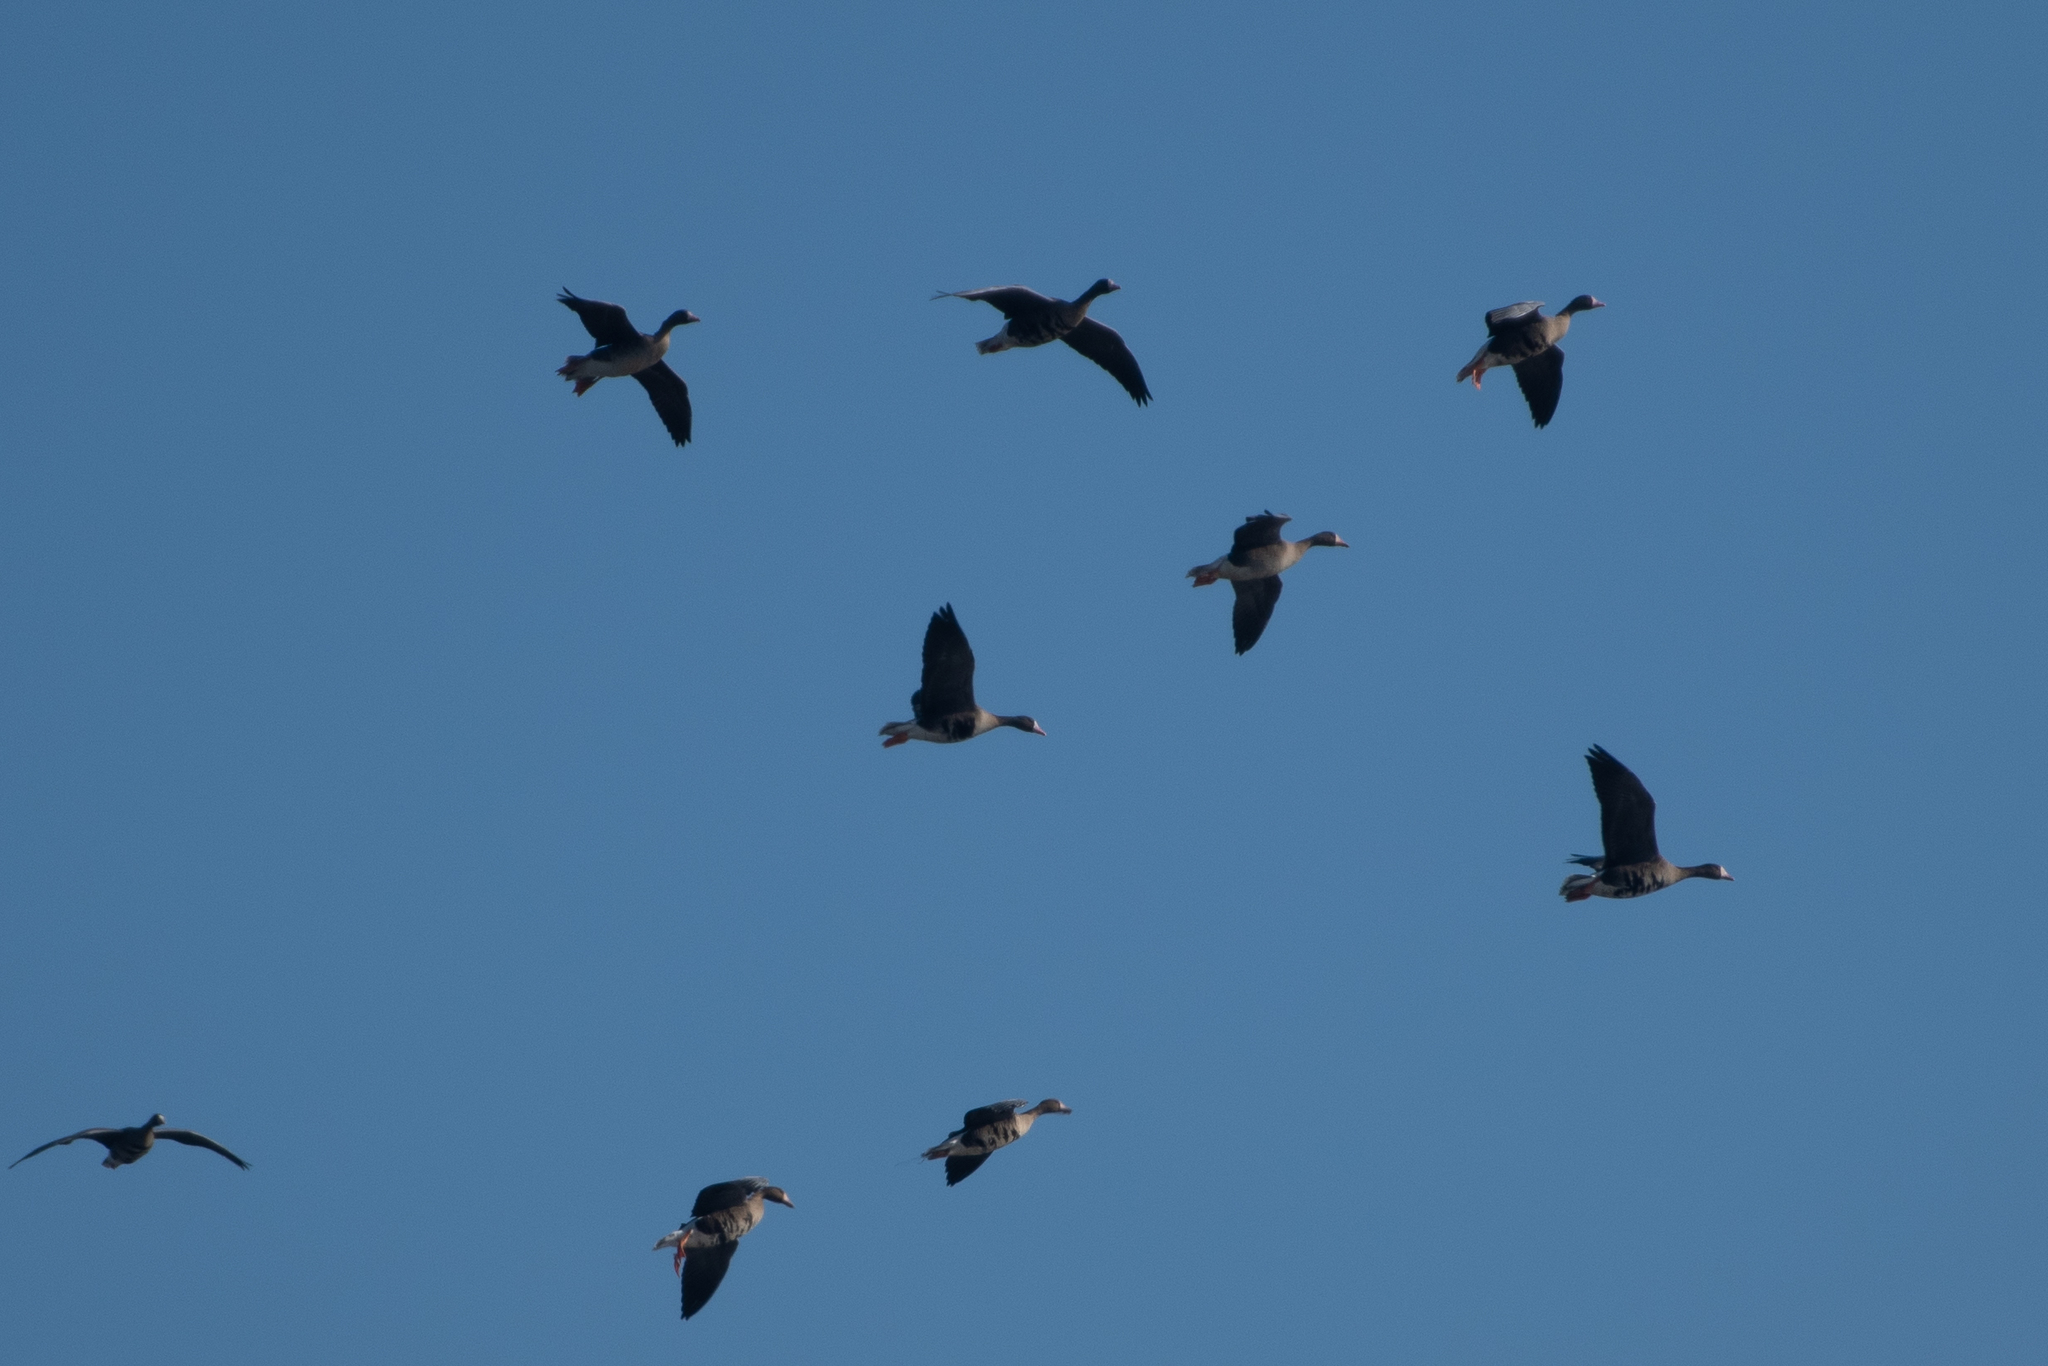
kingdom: Animalia
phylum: Chordata
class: Aves
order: Anseriformes
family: Anatidae
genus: Anser
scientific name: Anser albifrons
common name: Greater white-fronted goose
